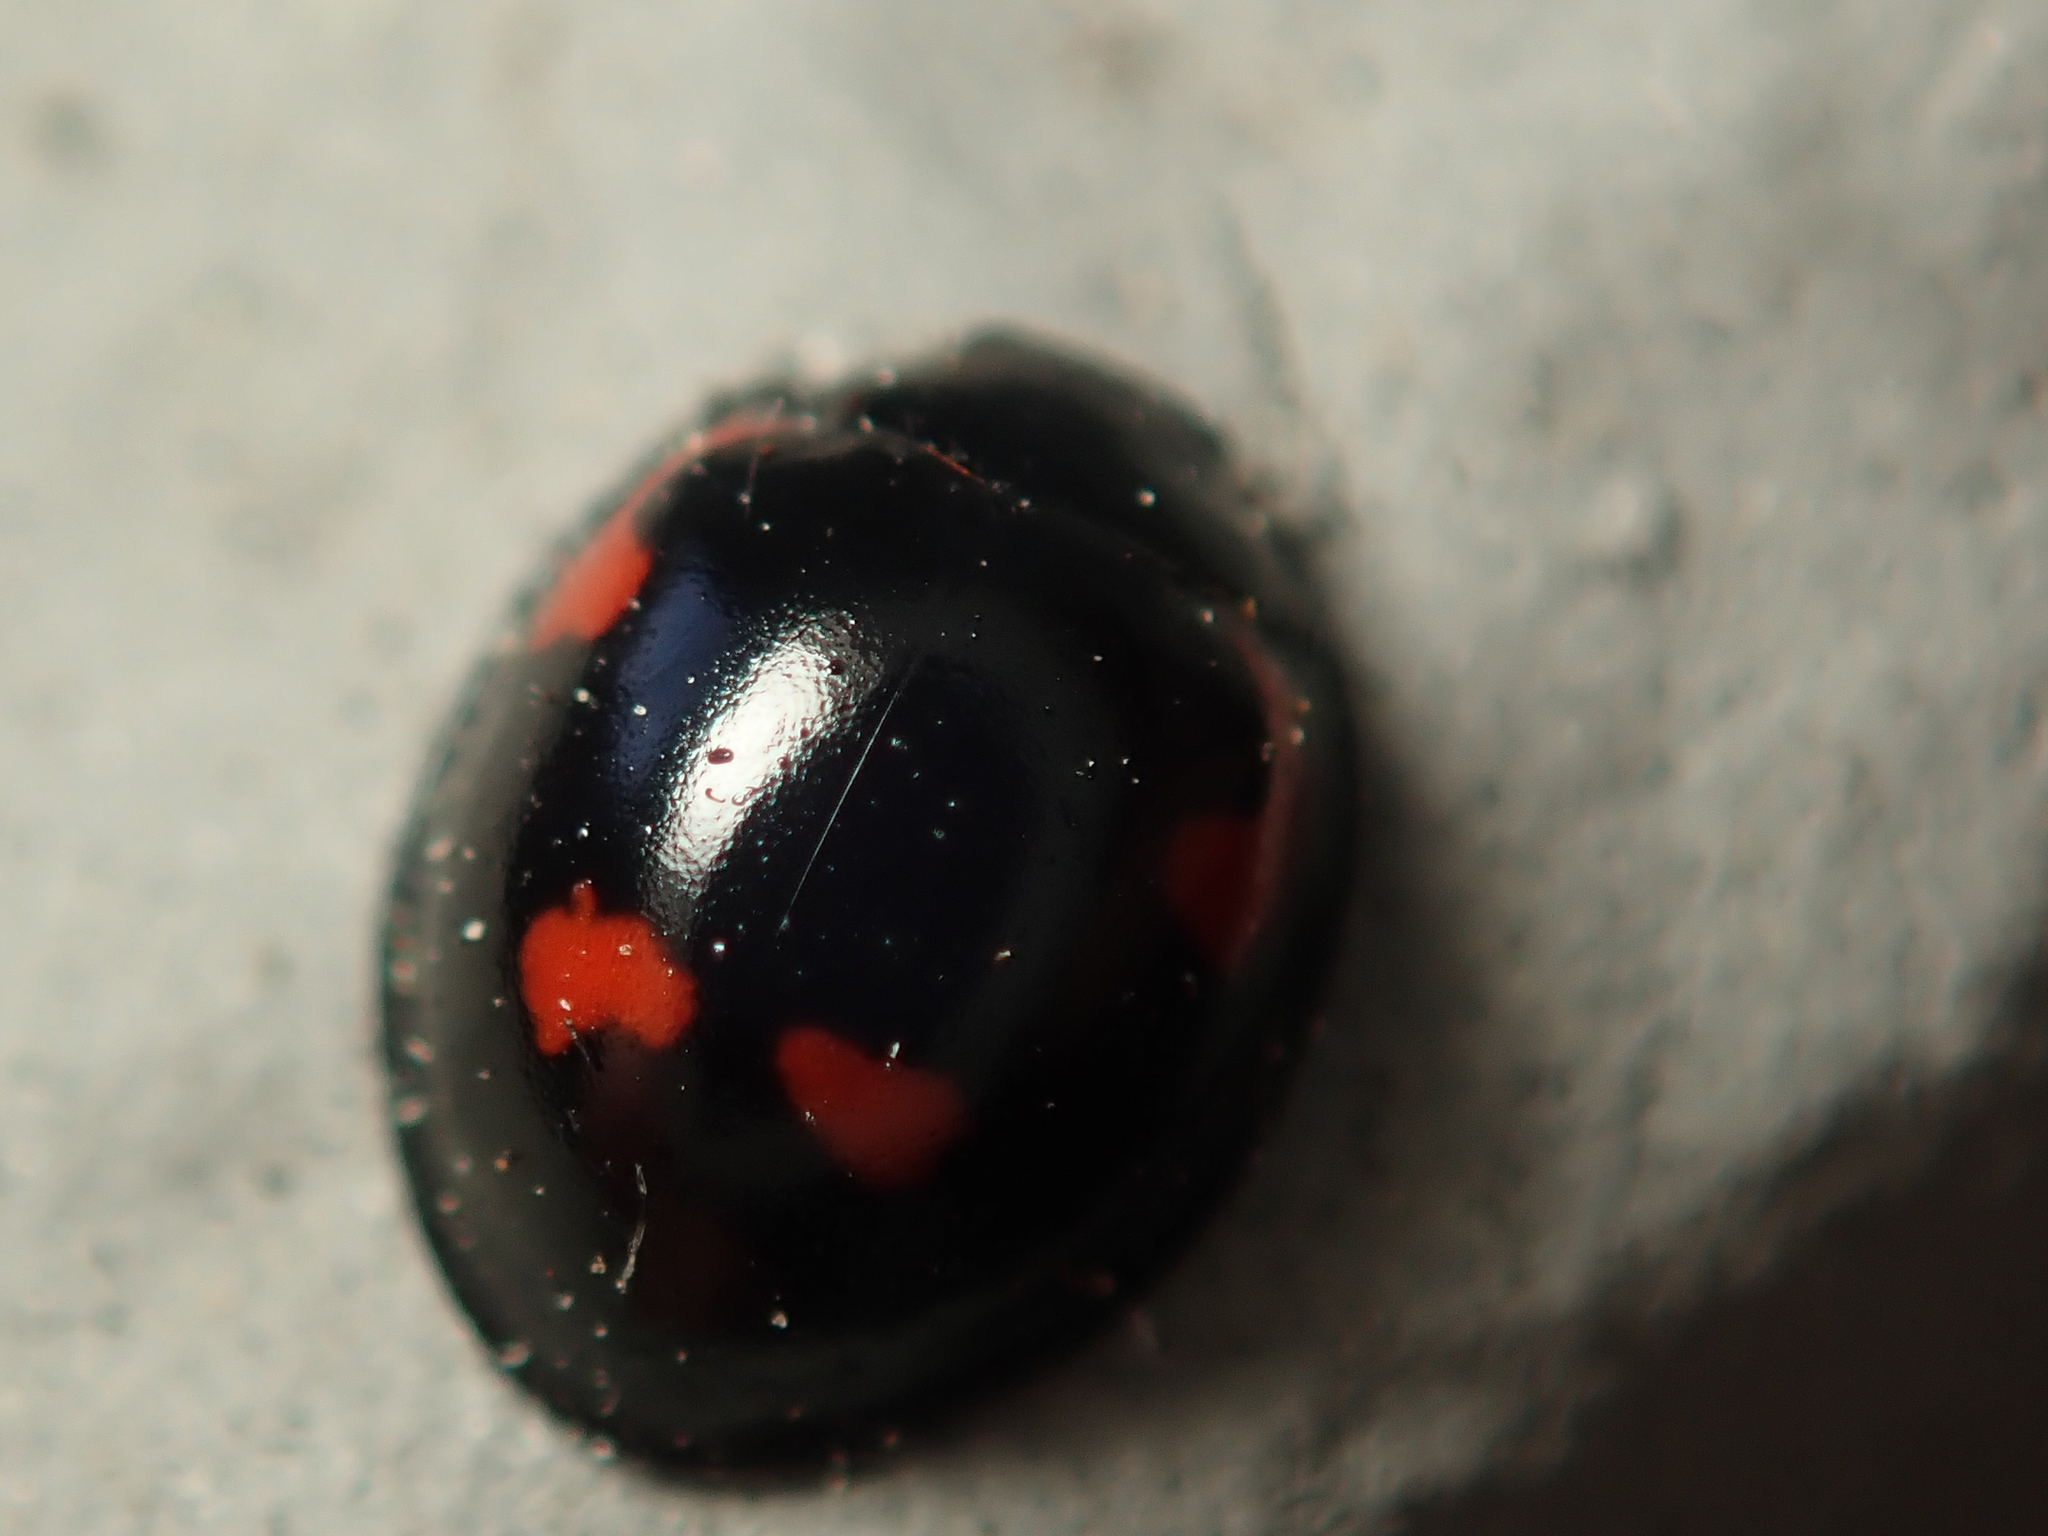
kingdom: Animalia
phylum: Arthropoda
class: Insecta
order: Coleoptera
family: Coccinellidae
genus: Brumus
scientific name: Brumus quadripustulatus
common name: Ladybird beetle
